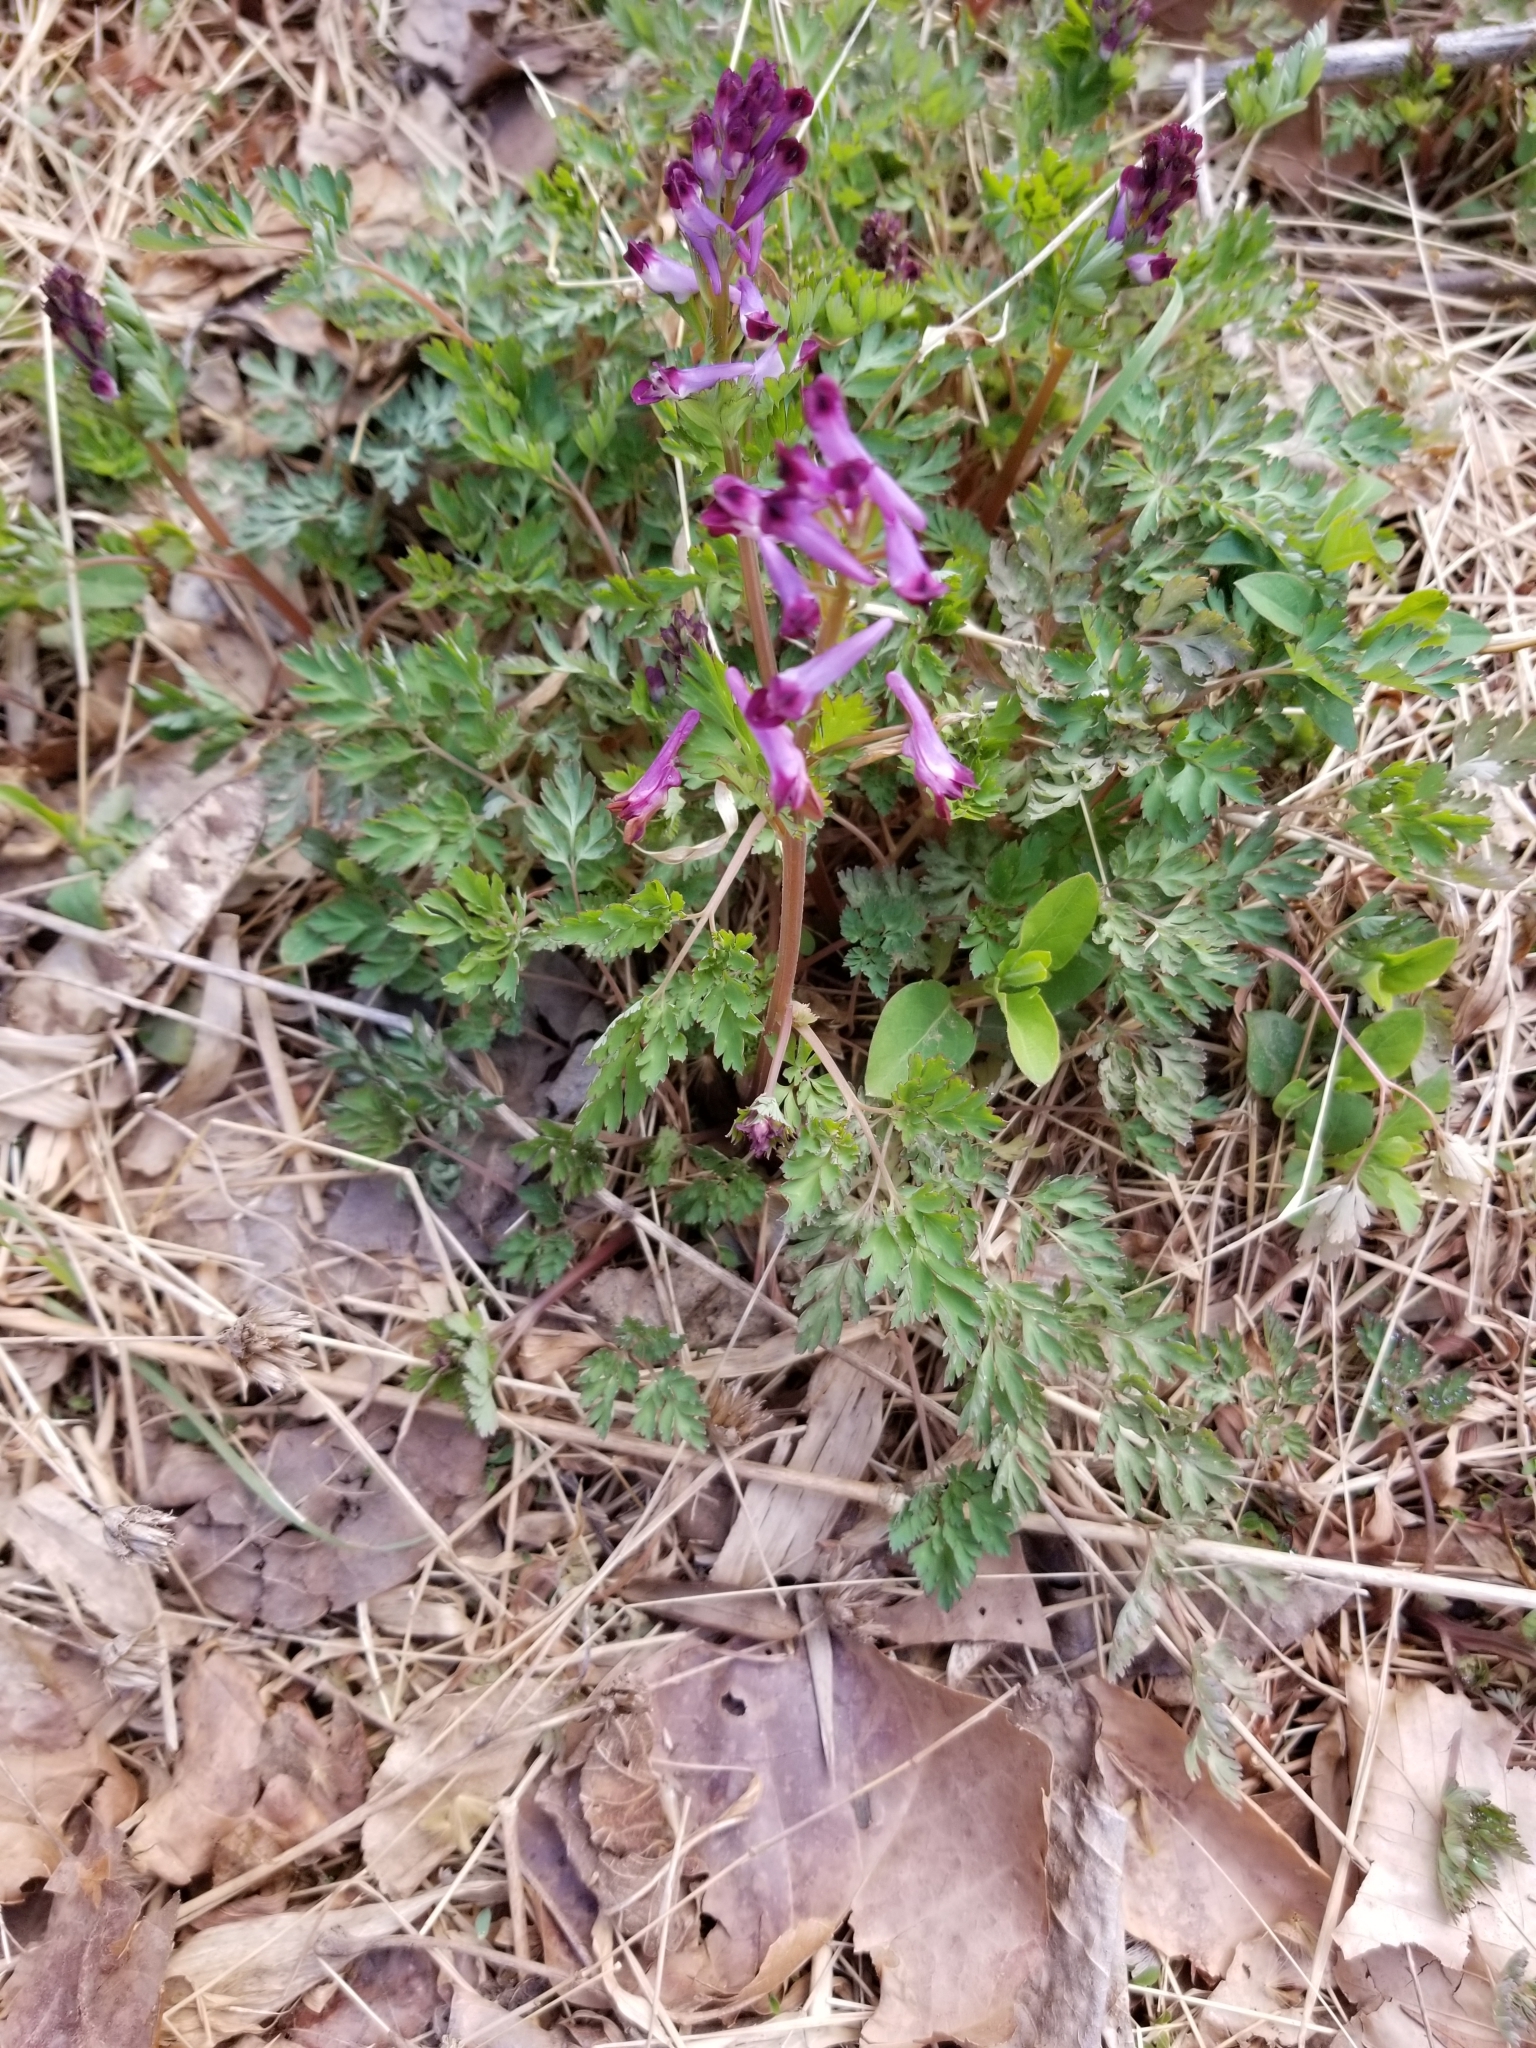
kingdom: Plantae
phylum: Tracheophyta
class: Magnoliopsida
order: Ranunculales
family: Papaveraceae
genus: Corydalis
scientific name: Corydalis incisa
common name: Incised fumewort
